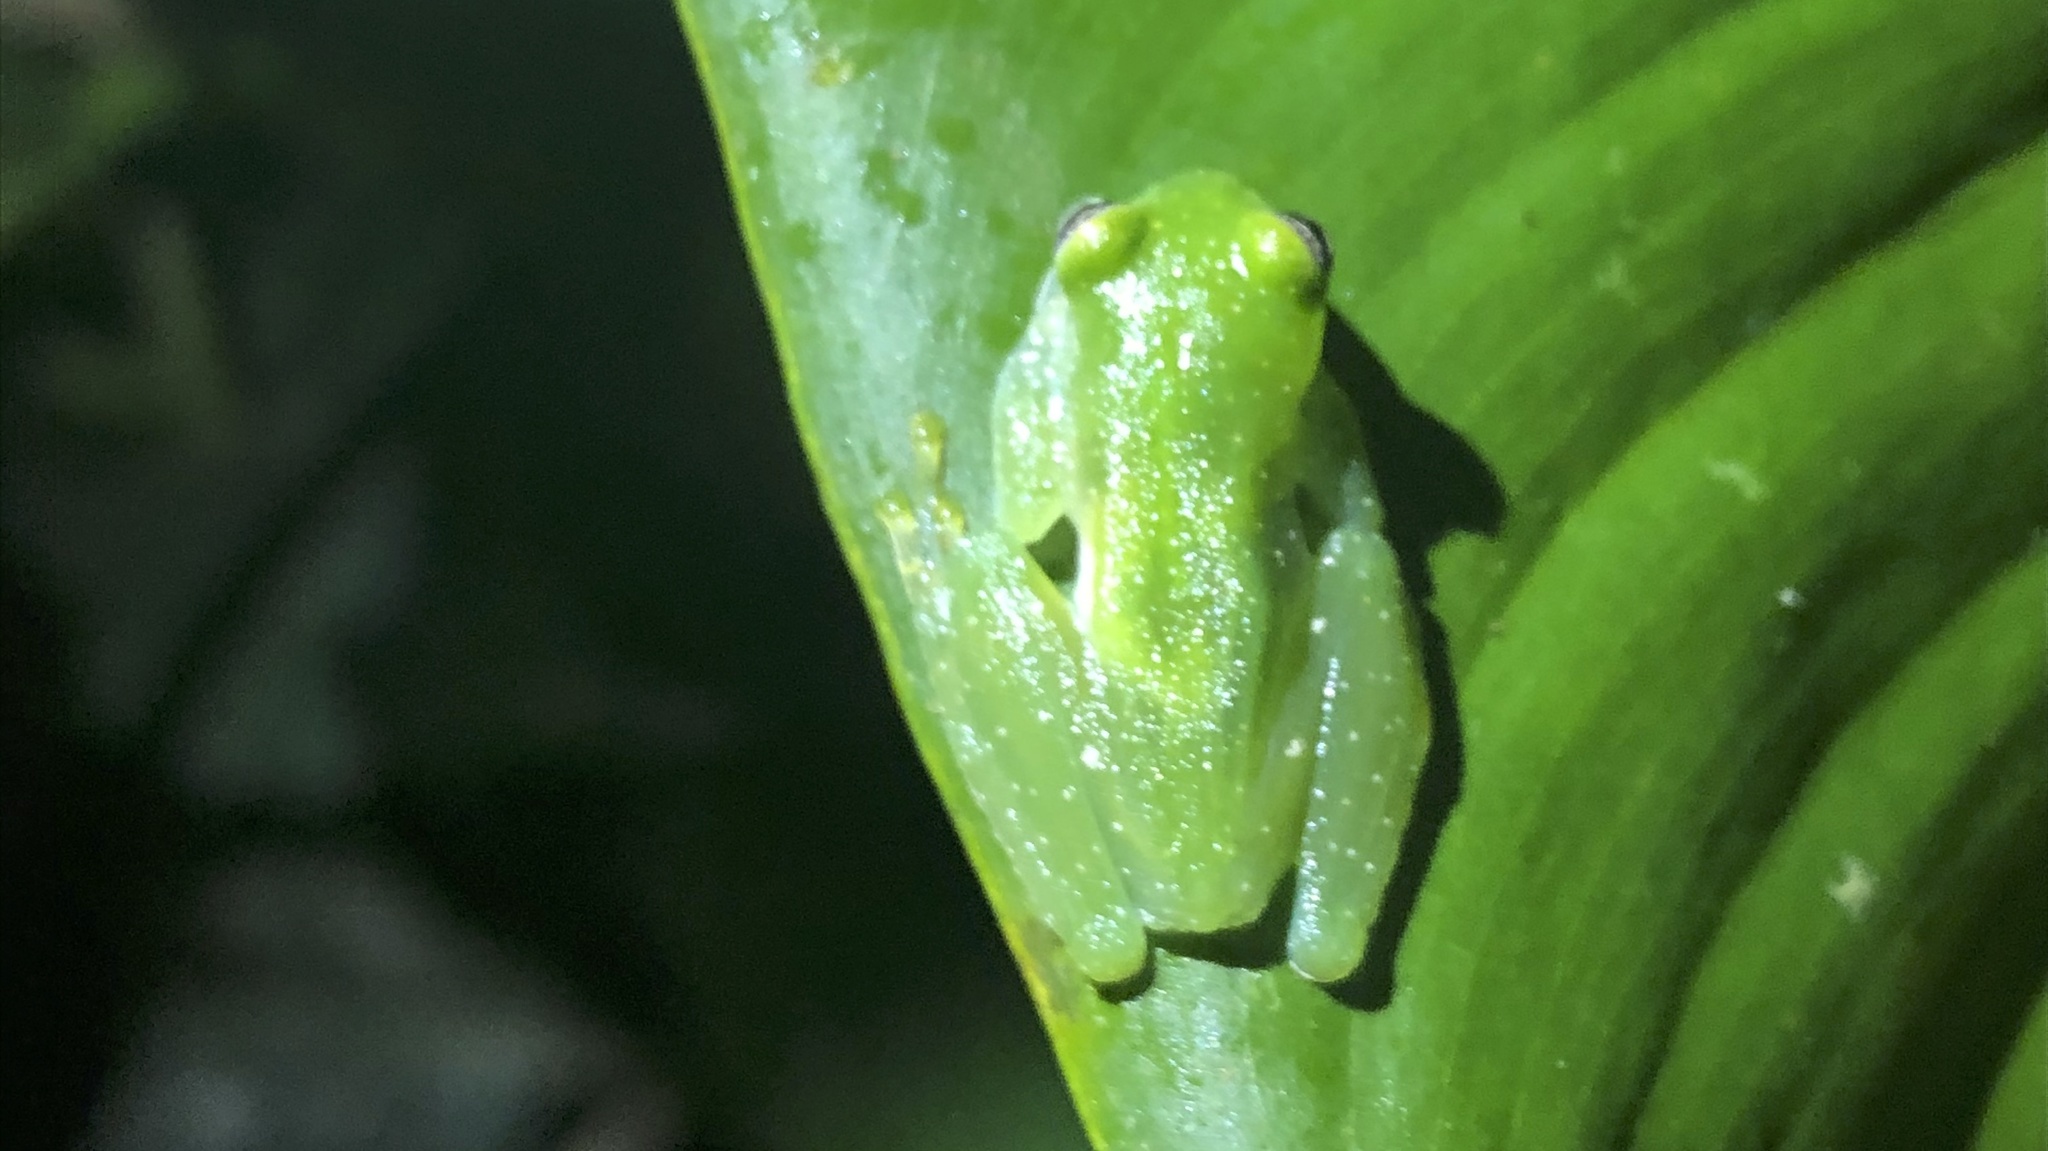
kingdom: Animalia
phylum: Chordata
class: Amphibia
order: Anura
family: Centrolenidae
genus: Teratohyla
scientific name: Teratohyla pulverata
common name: Chiriqui glass frog
